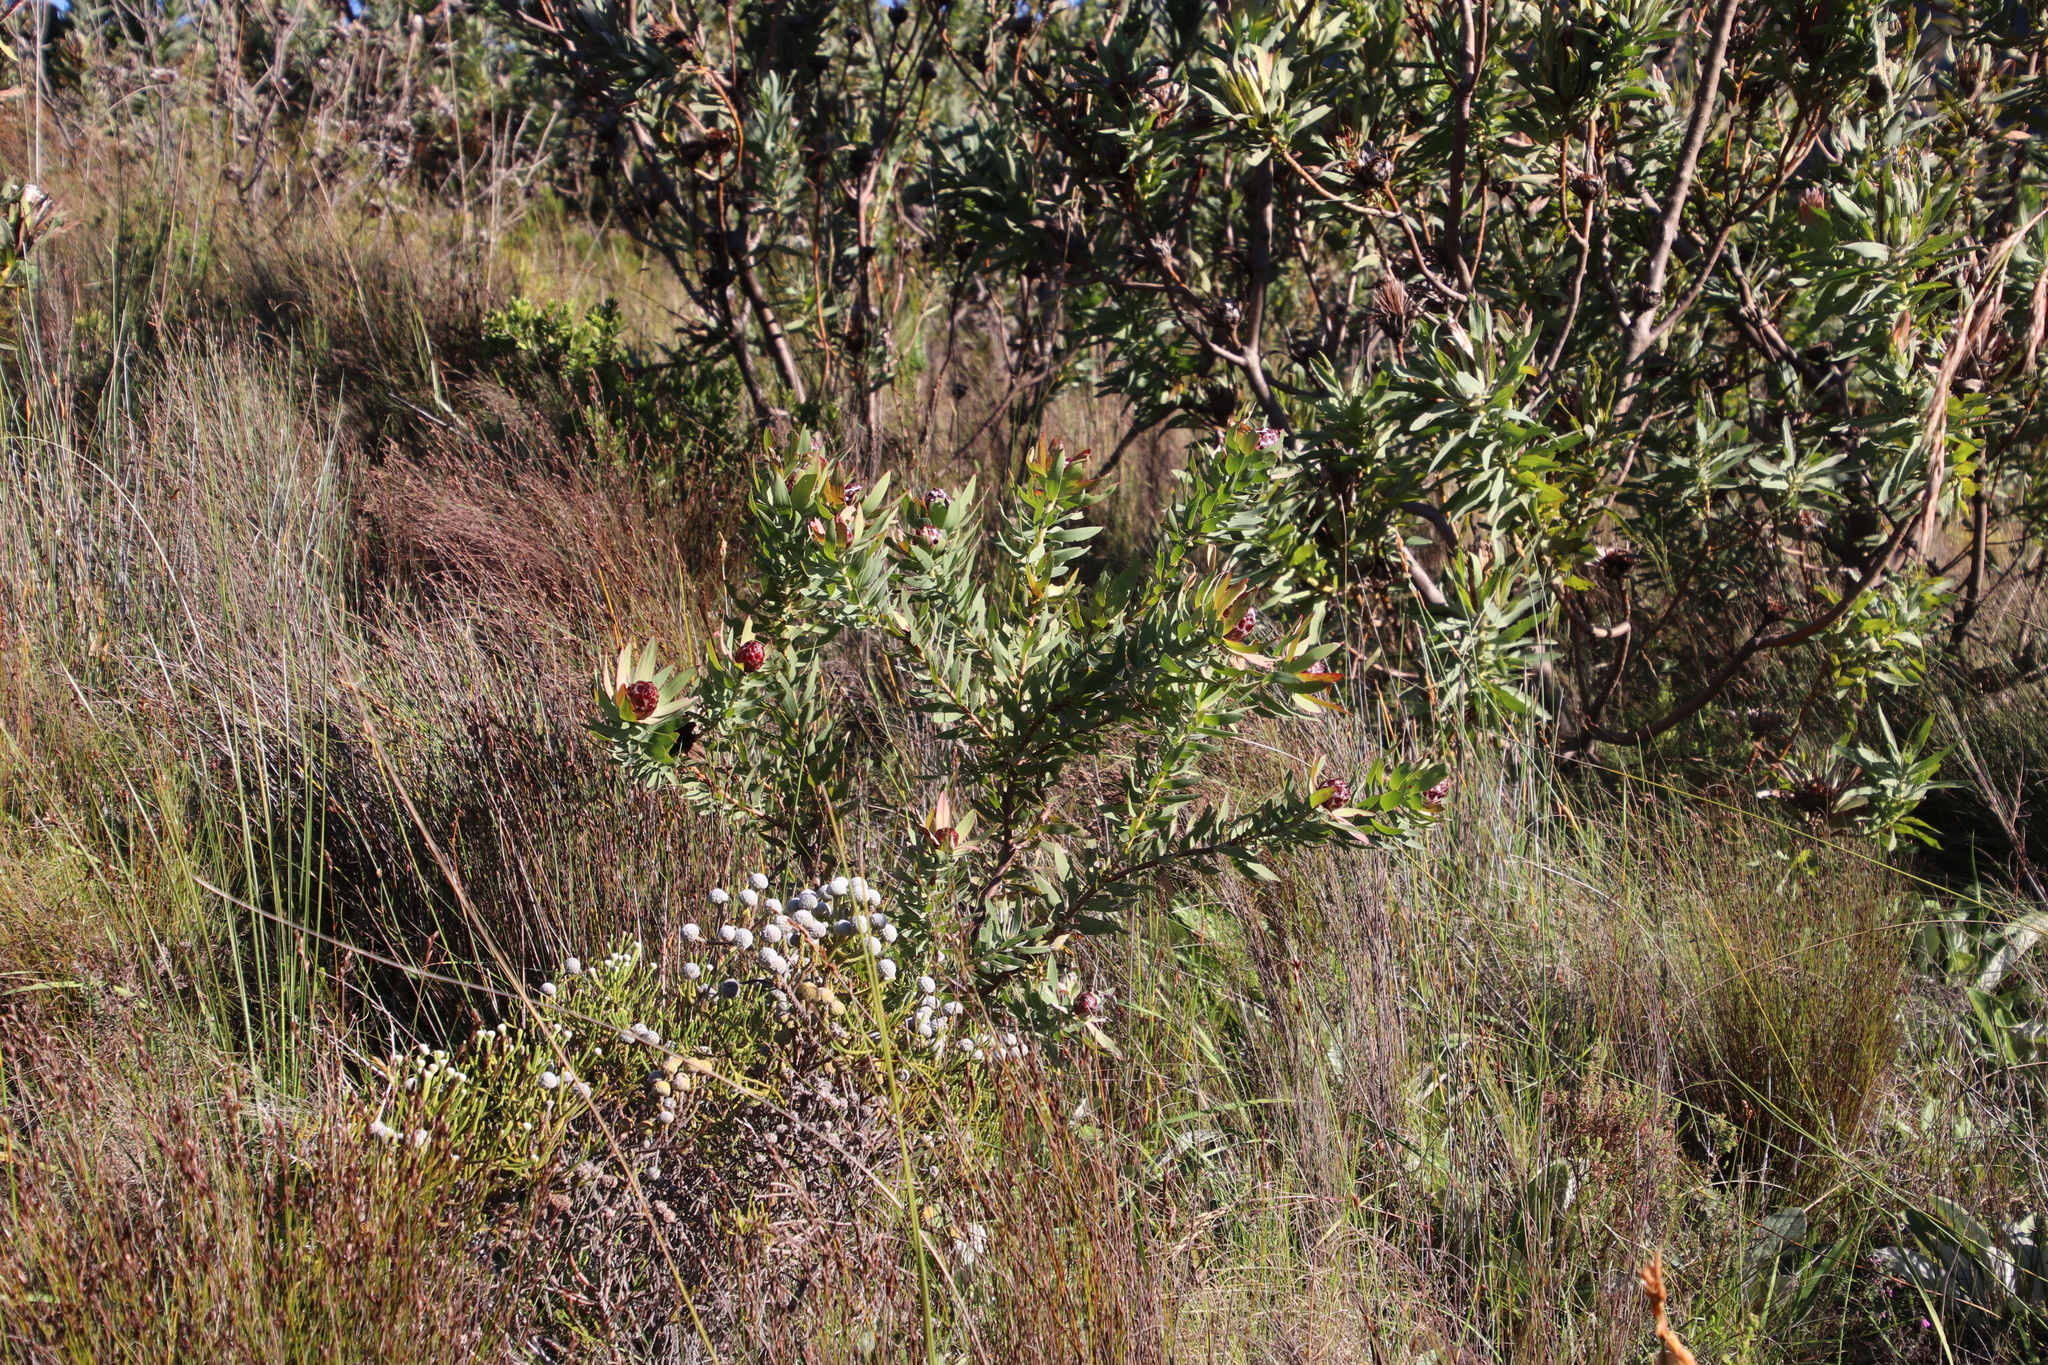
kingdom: Plantae
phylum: Tracheophyta
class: Magnoliopsida
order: Proteales
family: Proteaceae
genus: Leucadendron
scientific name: Leucadendron sessile
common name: Western sunbush
